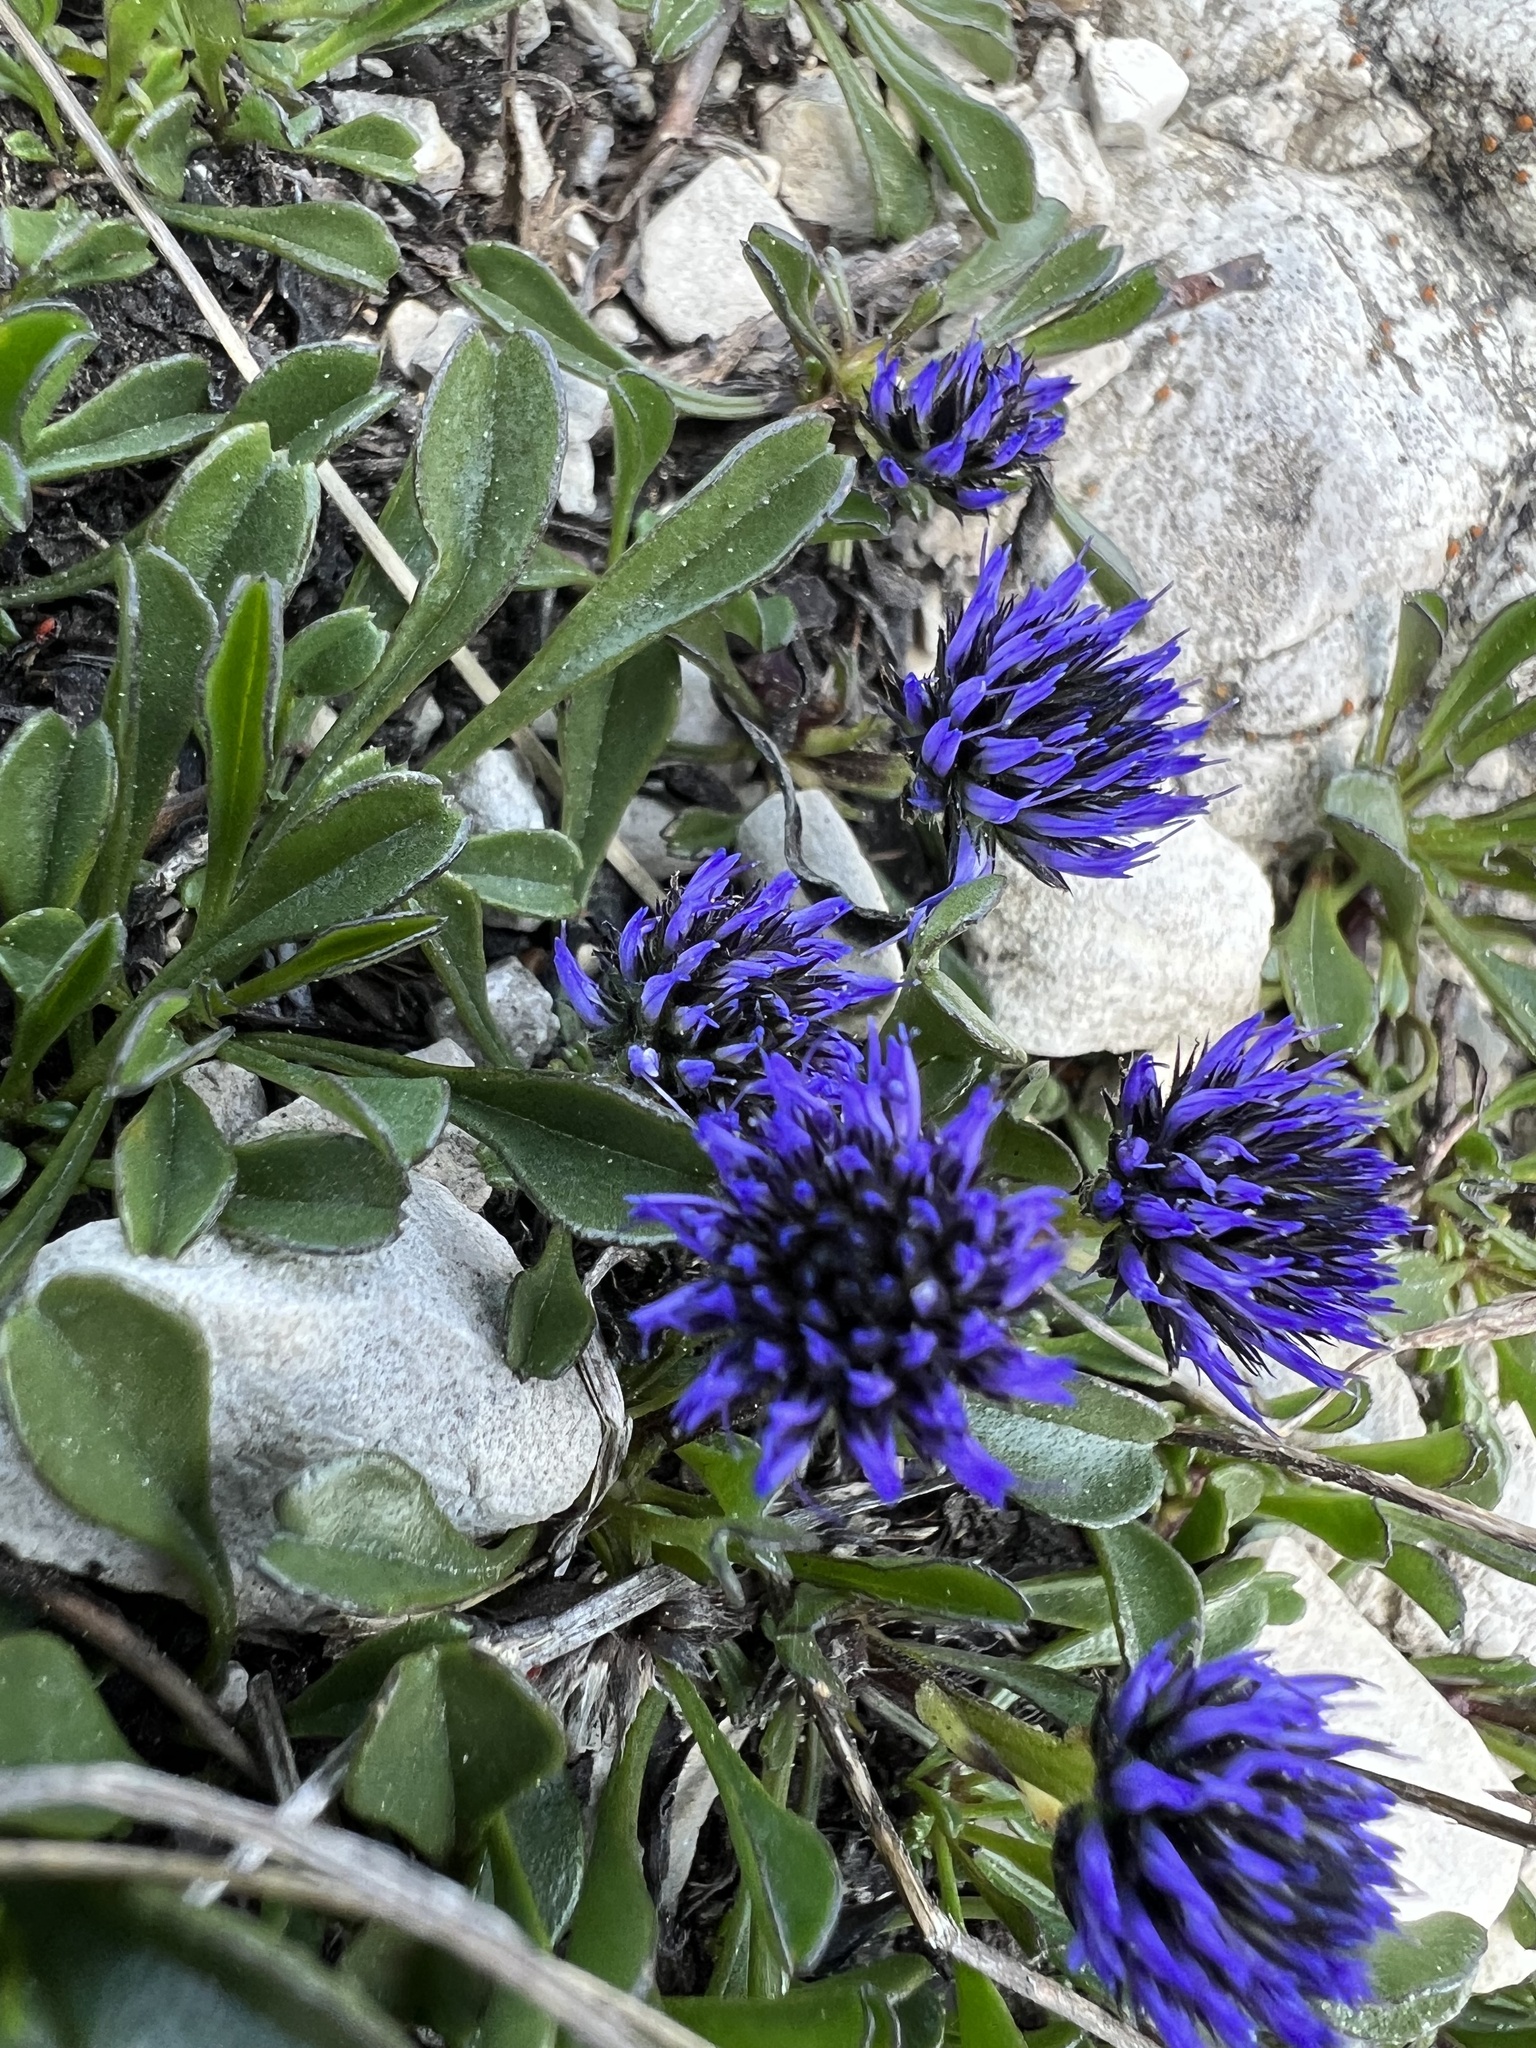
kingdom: Plantae
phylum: Tracheophyta
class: Magnoliopsida
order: Lamiales
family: Plantaginaceae
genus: Globularia
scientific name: Globularia cordifolia
